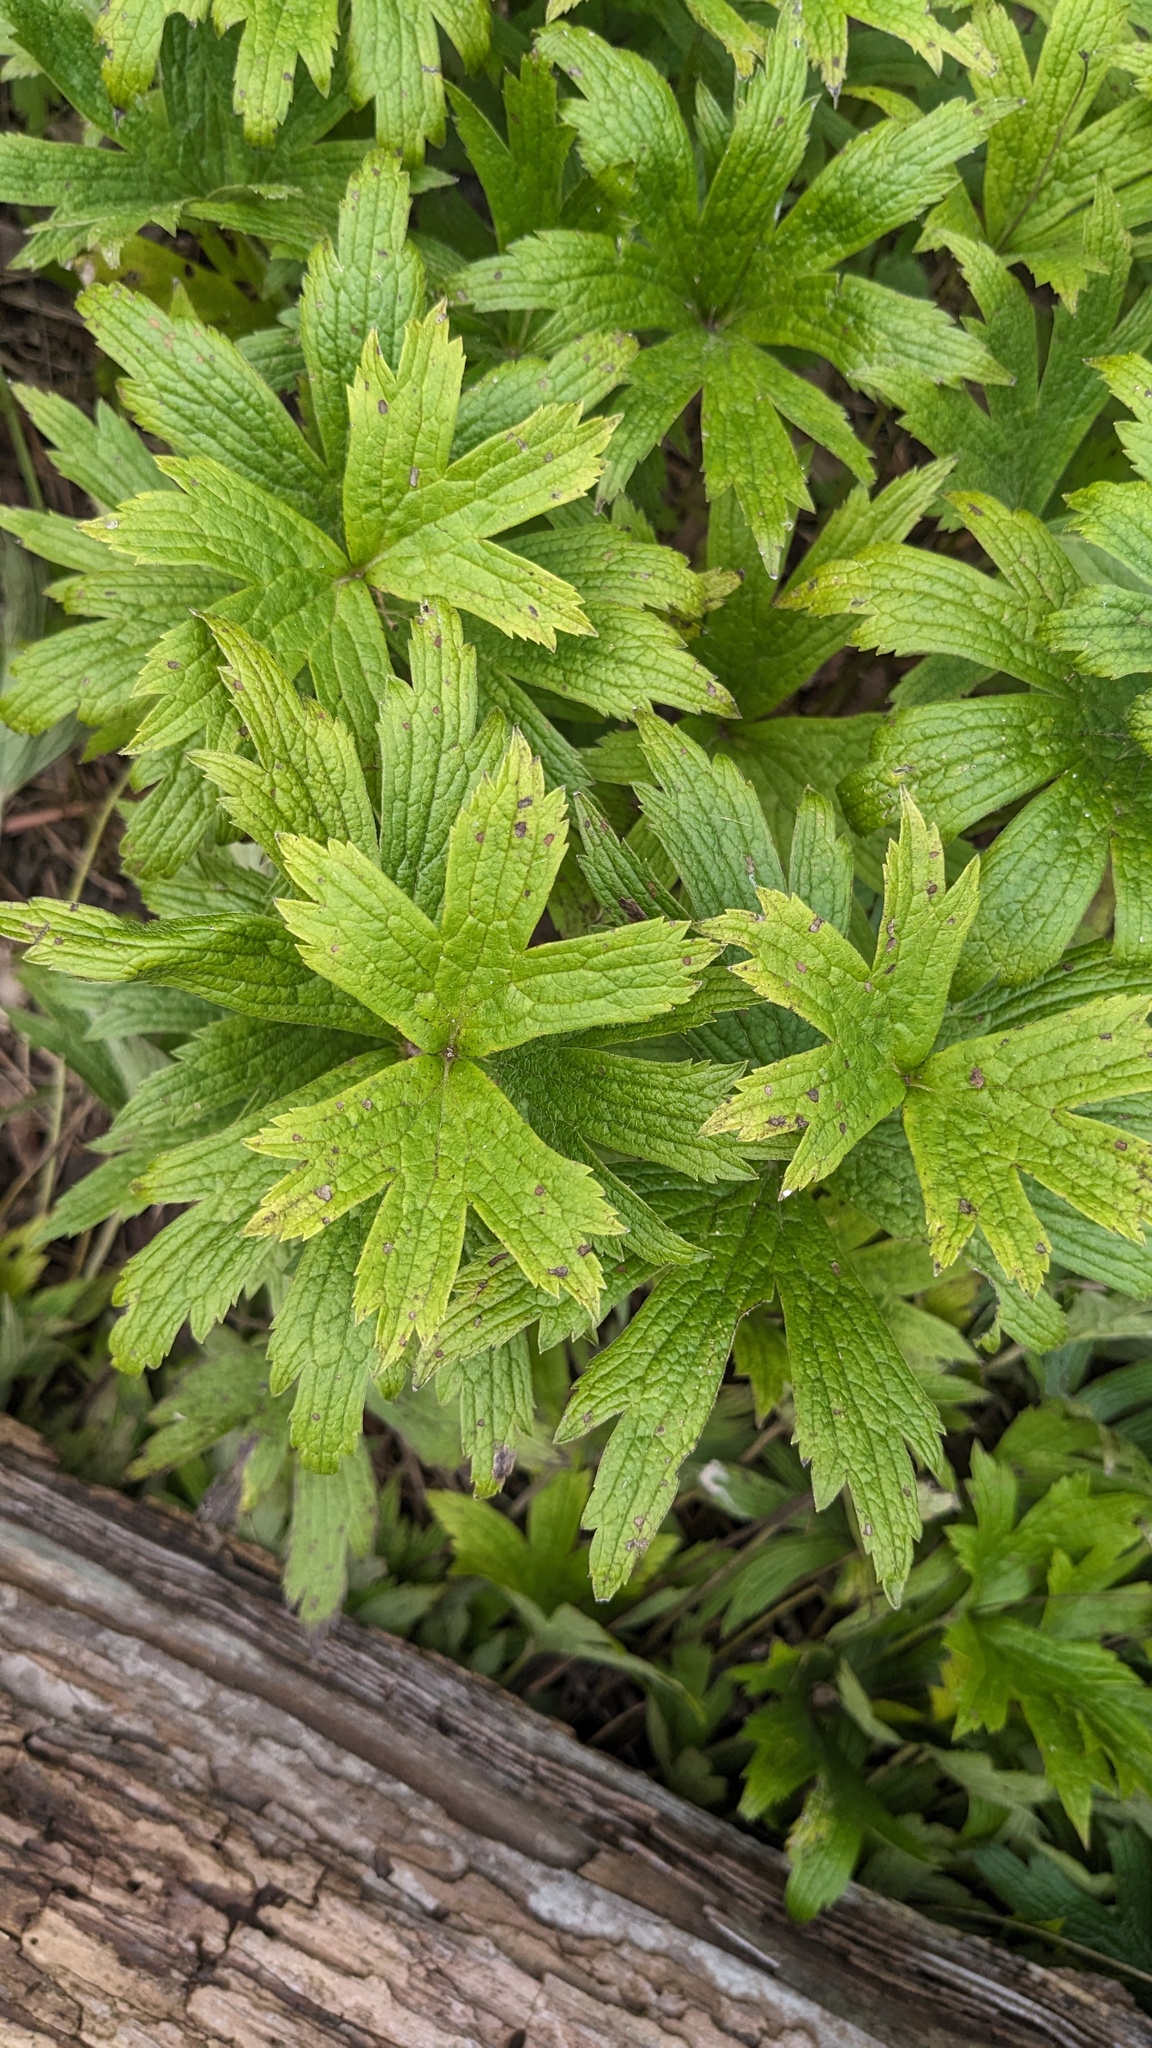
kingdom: Plantae
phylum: Tracheophyta
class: Magnoliopsida
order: Ranunculales
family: Ranunculaceae
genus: Anemonastrum
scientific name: Anemonastrum canadense
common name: Canada anemone
